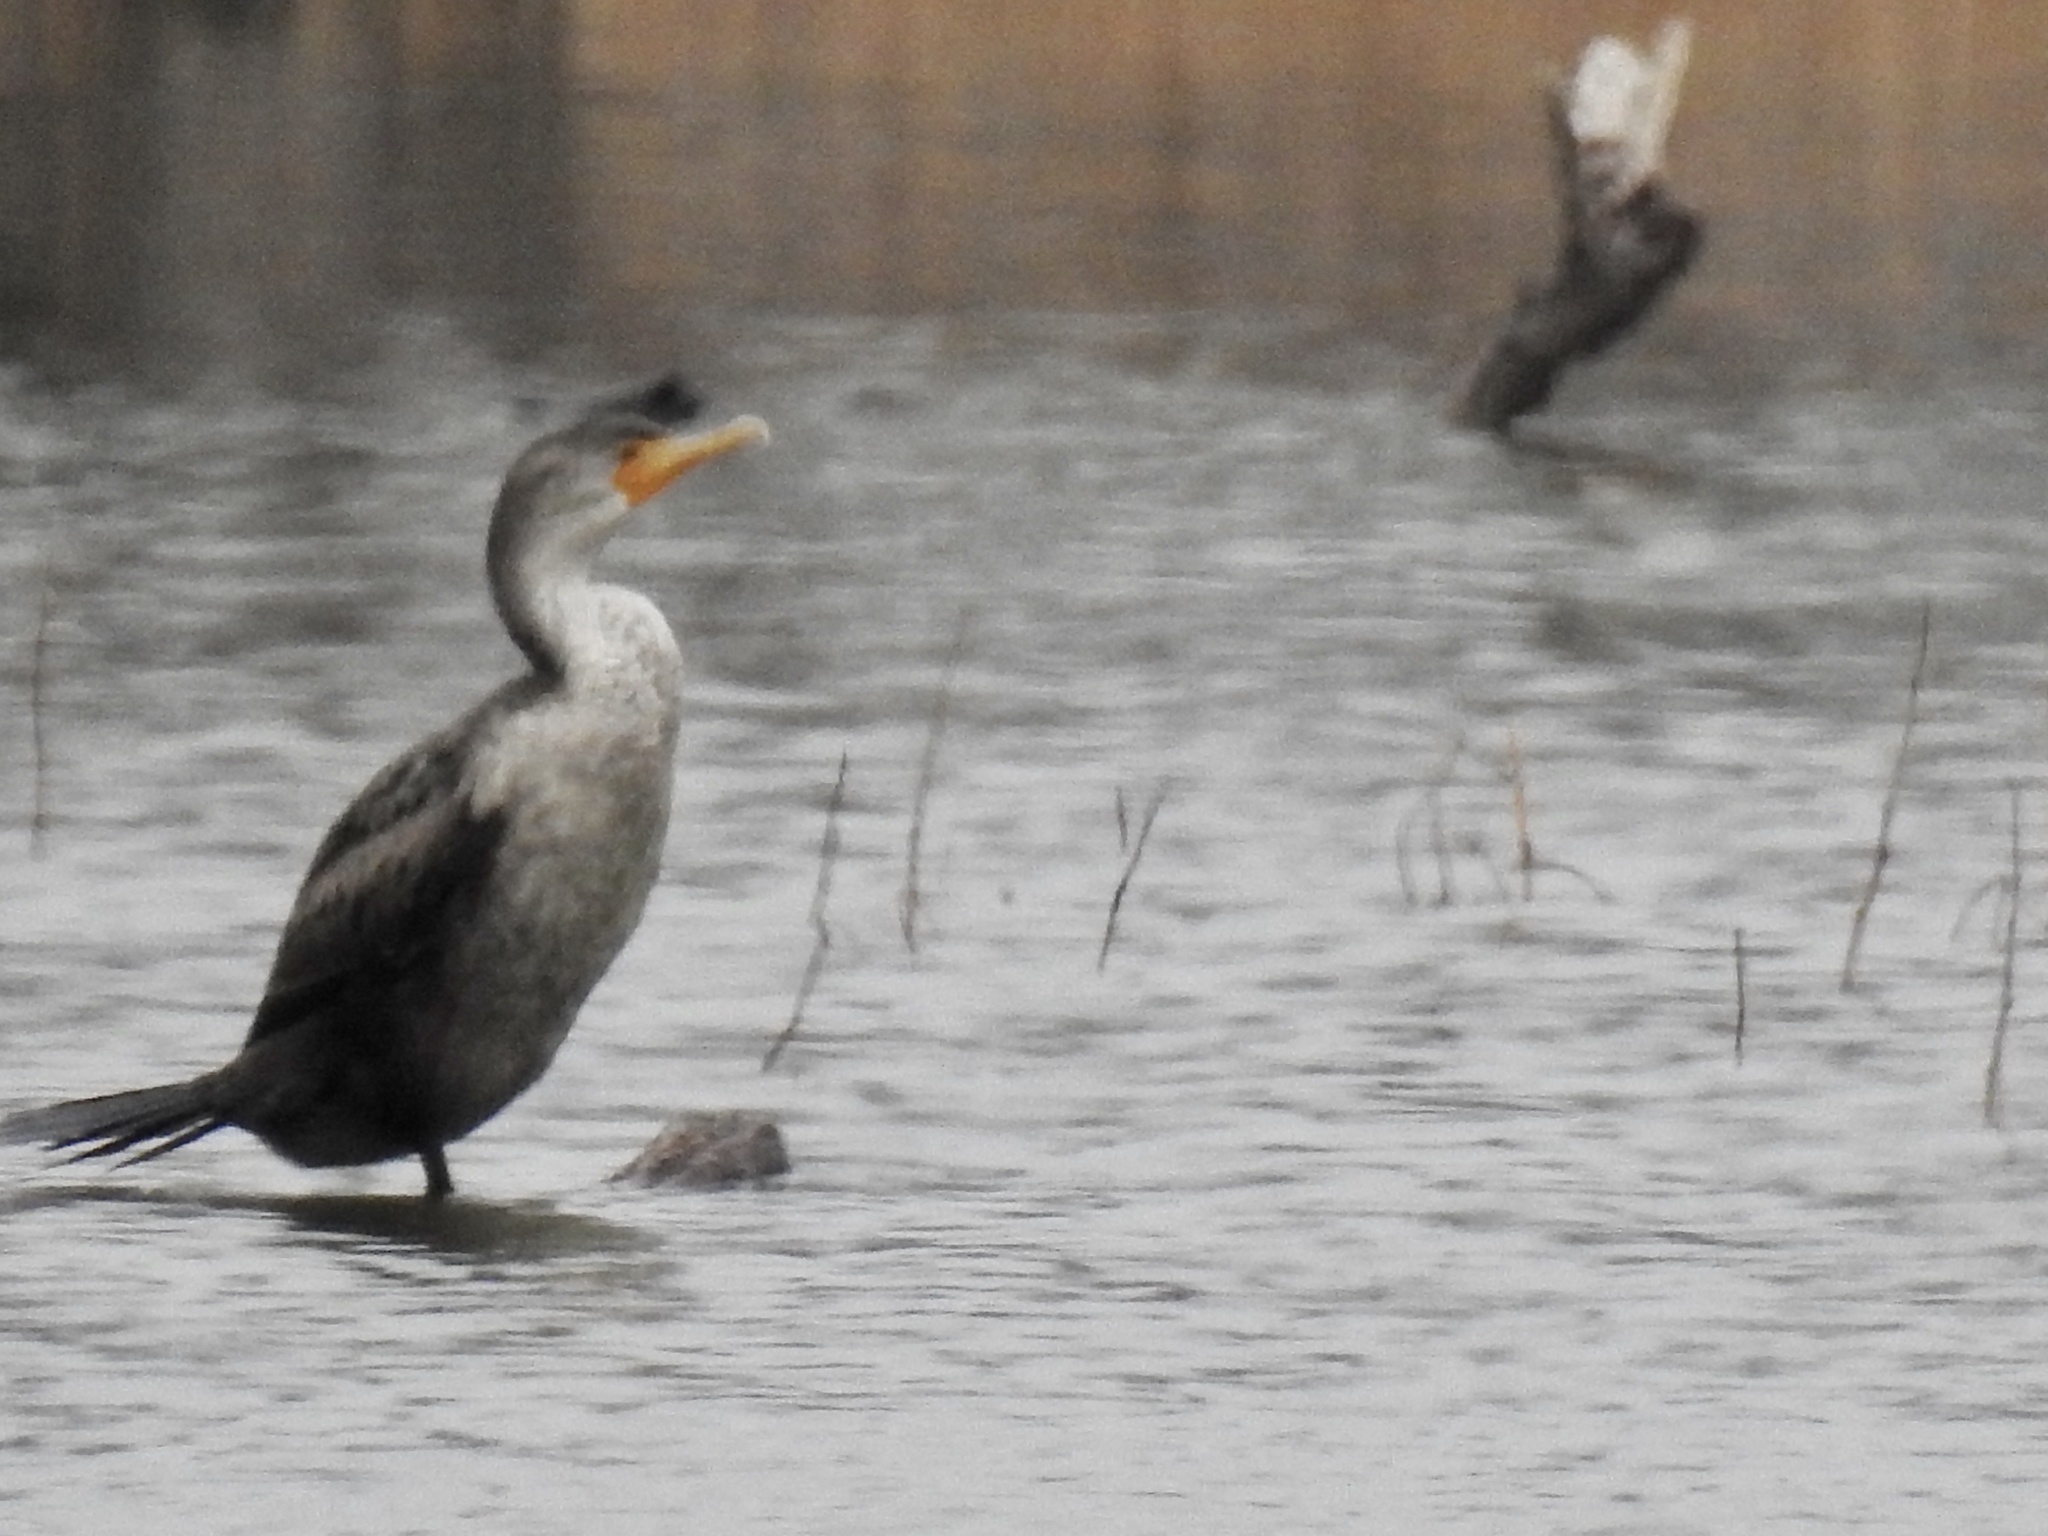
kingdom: Animalia
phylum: Chordata
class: Aves
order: Suliformes
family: Phalacrocoracidae
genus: Phalacrocorax
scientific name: Phalacrocorax auritus
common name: Double-crested cormorant
